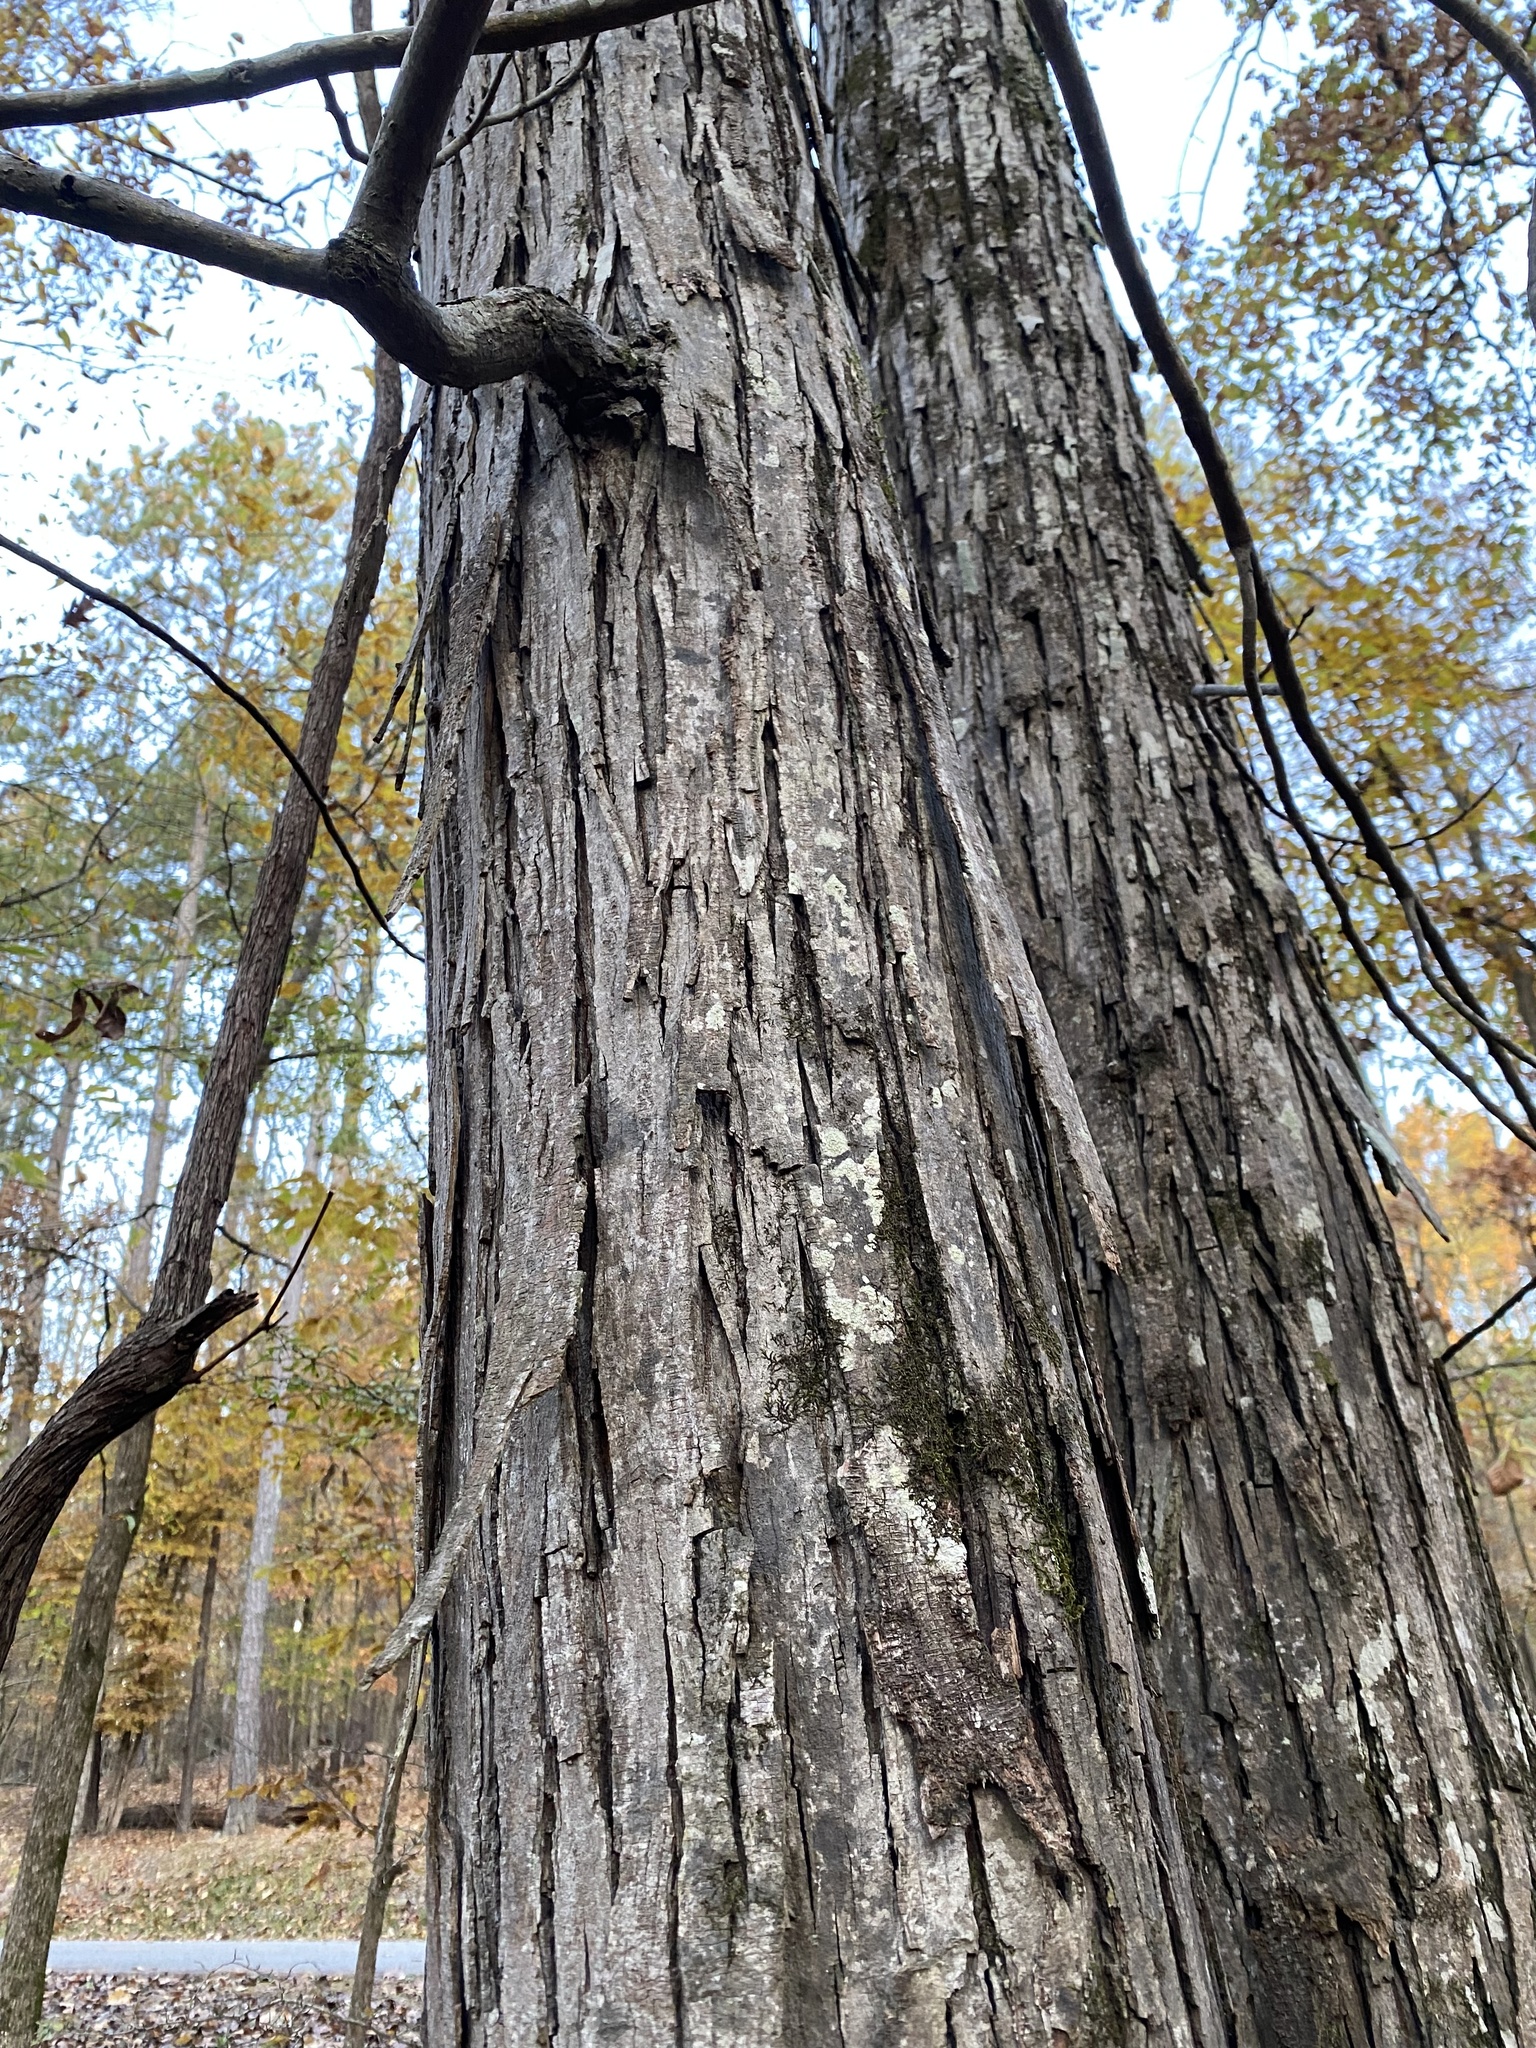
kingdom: Plantae
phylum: Tracheophyta
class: Magnoliopsida
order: Fagales
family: Juglandaceae
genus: Carya
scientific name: Carya ovata
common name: Shagbark hickory
